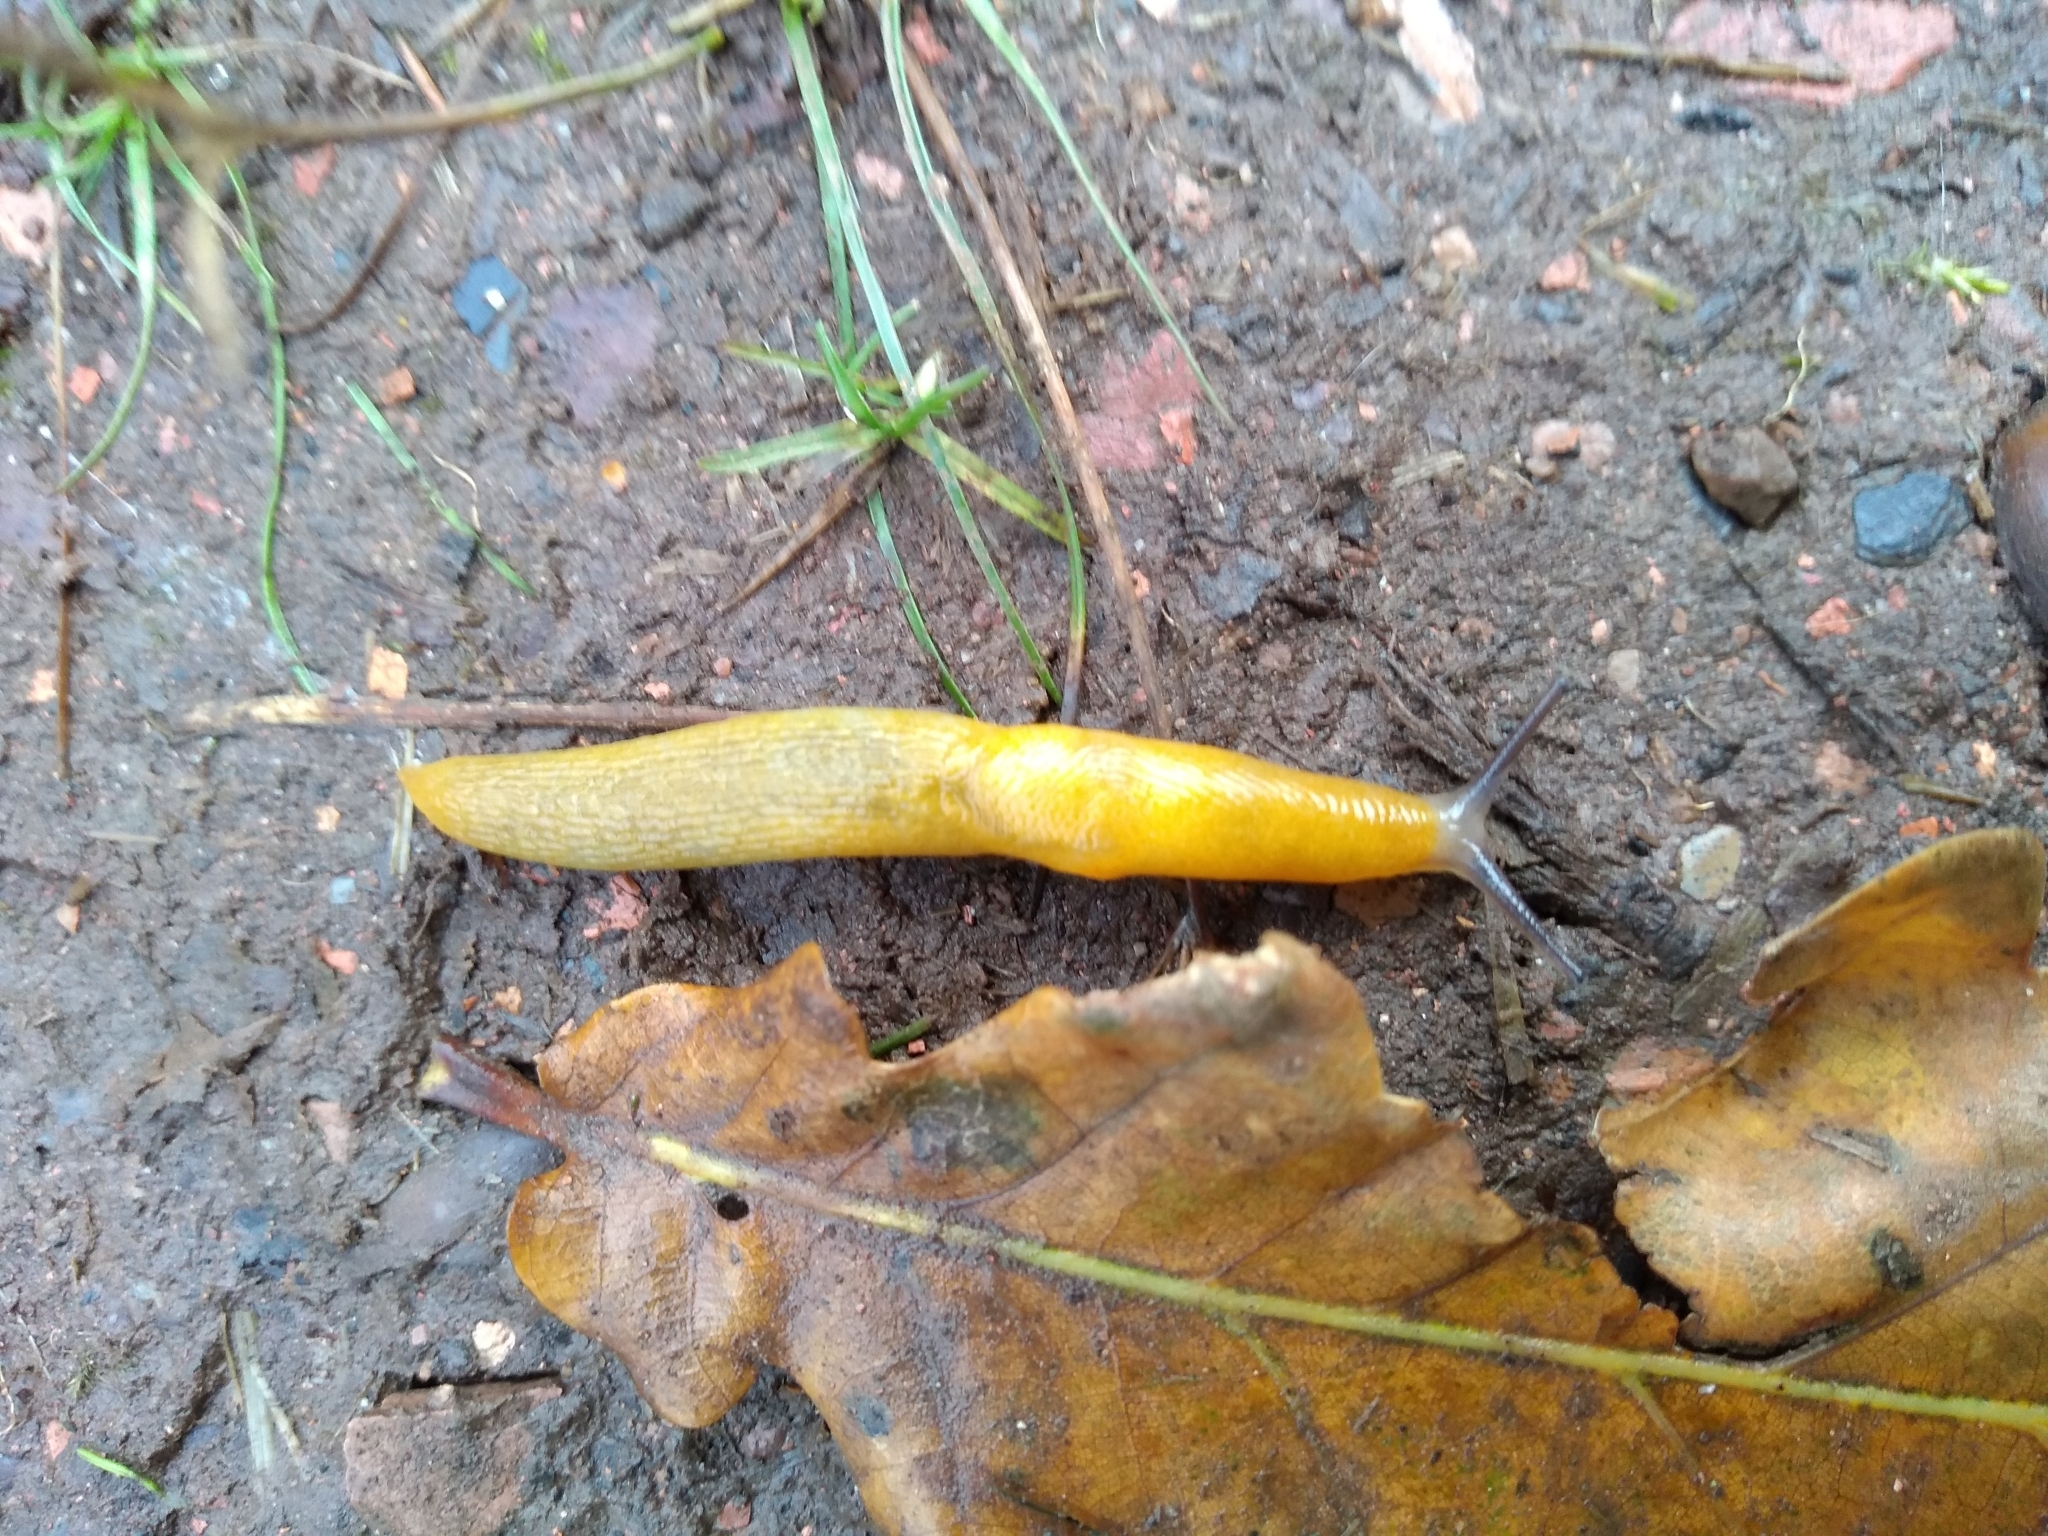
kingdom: Animalia
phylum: Mollusca
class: Gastropoda
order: Stylommatophora
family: Limacidae
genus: Malacolimax
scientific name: Malacolimax tenellus
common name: Lemon slug
